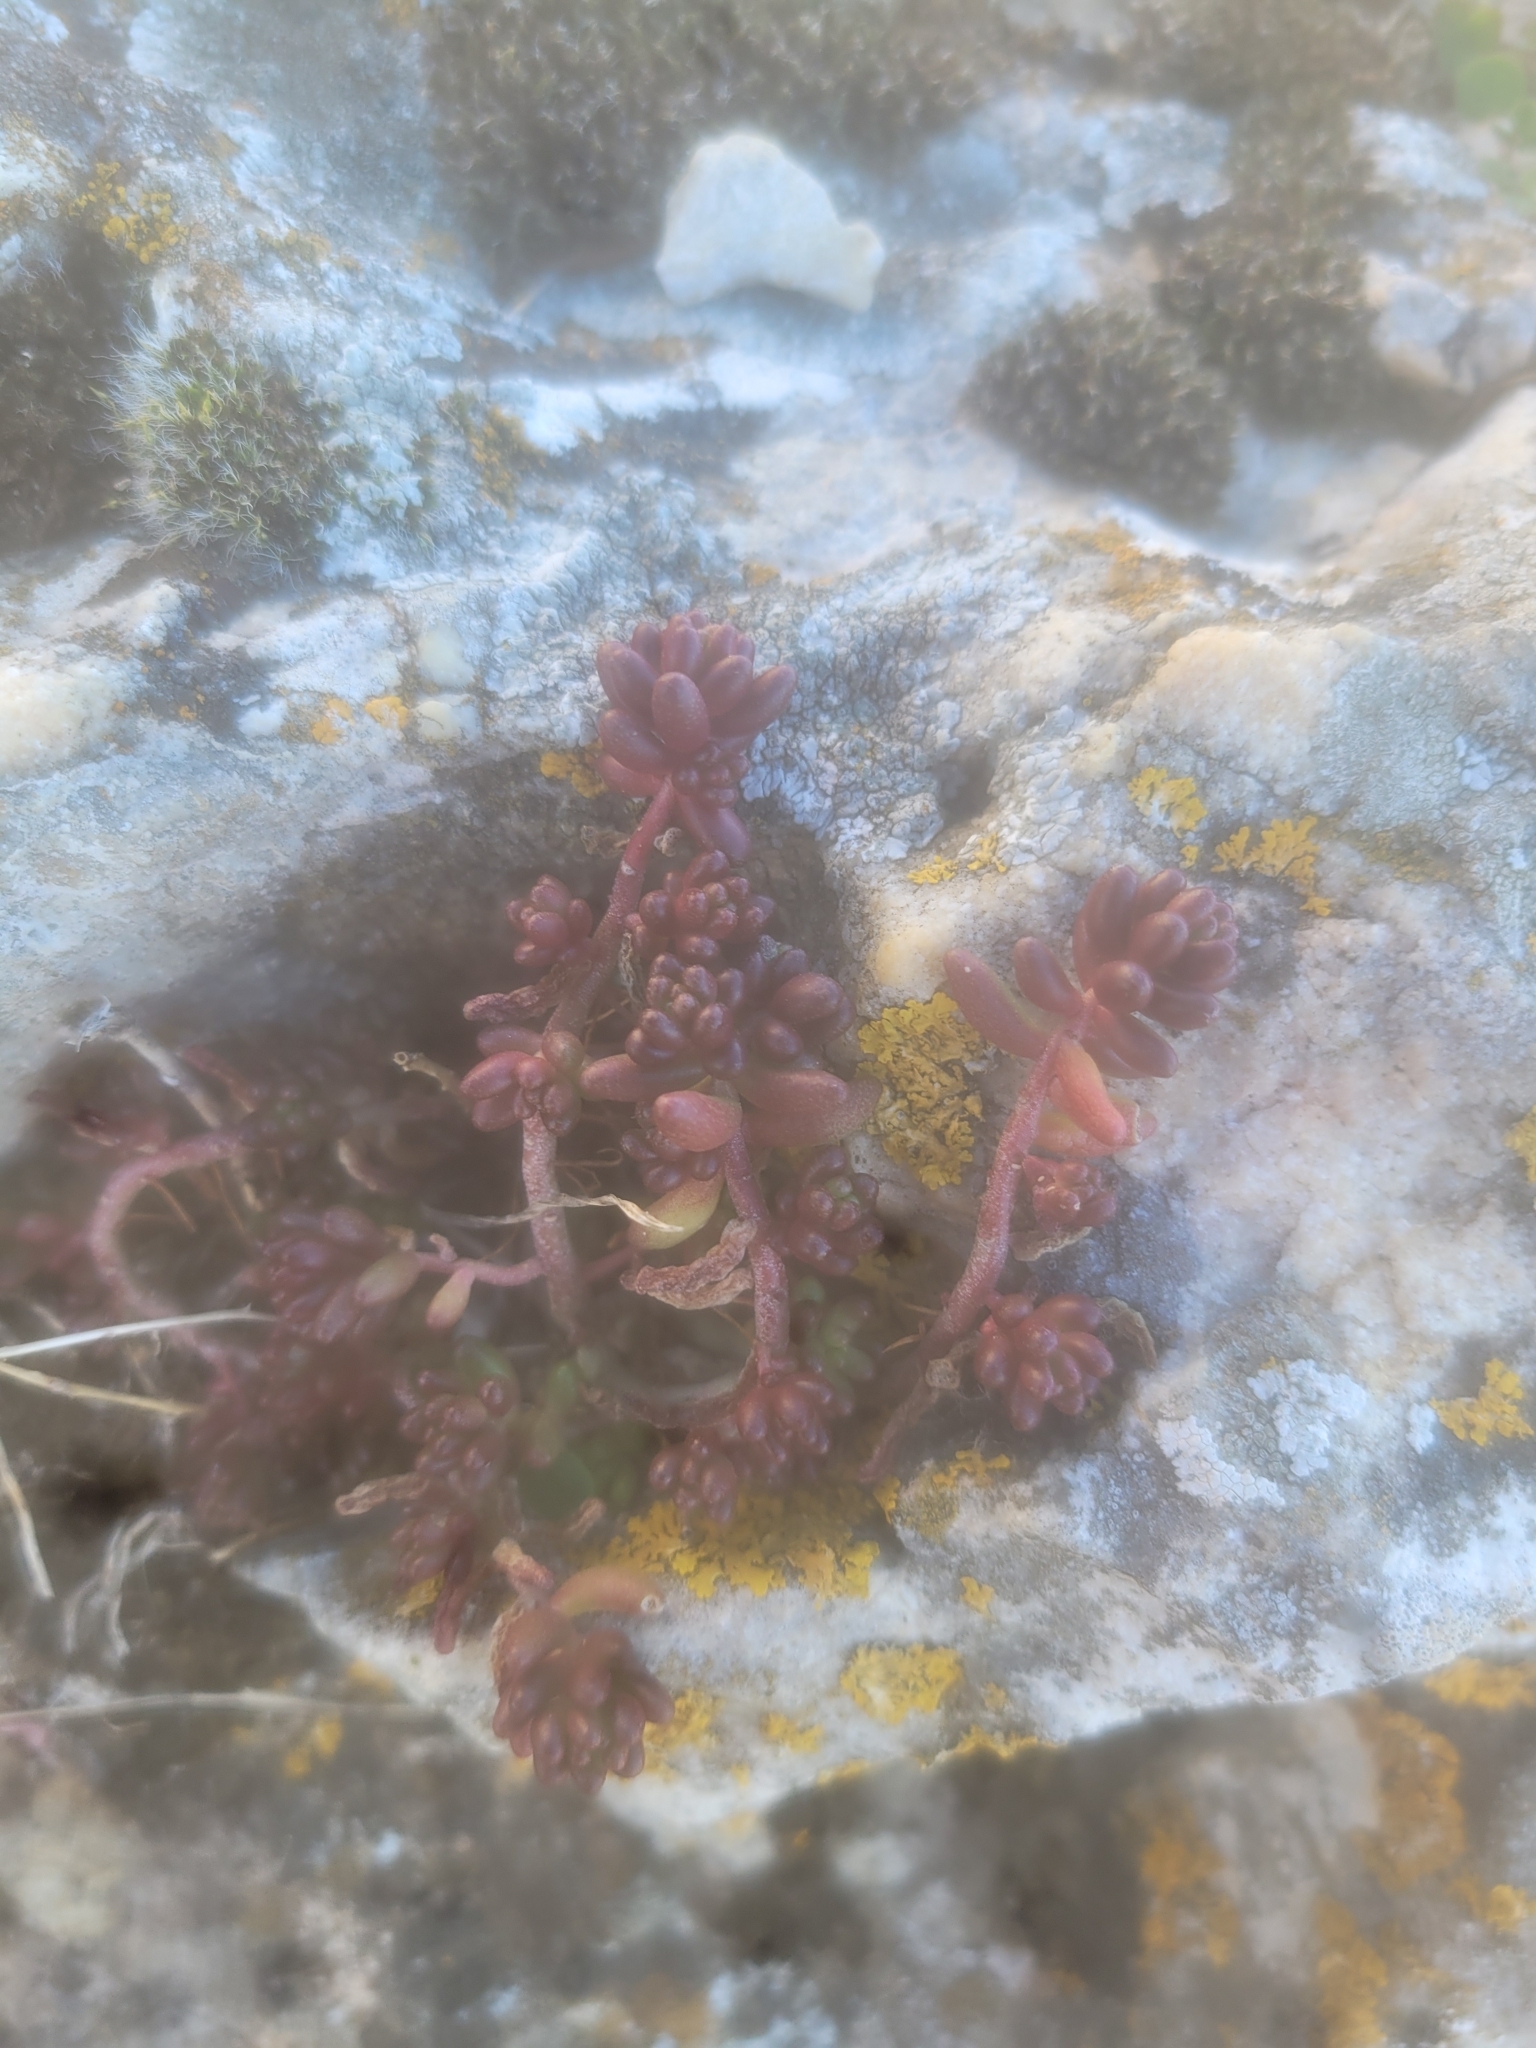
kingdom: Plantae
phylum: Tracheophyta
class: Magnoliopsida
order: Saxifragales
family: Crassulaceae
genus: Sedum
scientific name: Sedum album
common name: White stonecrop
